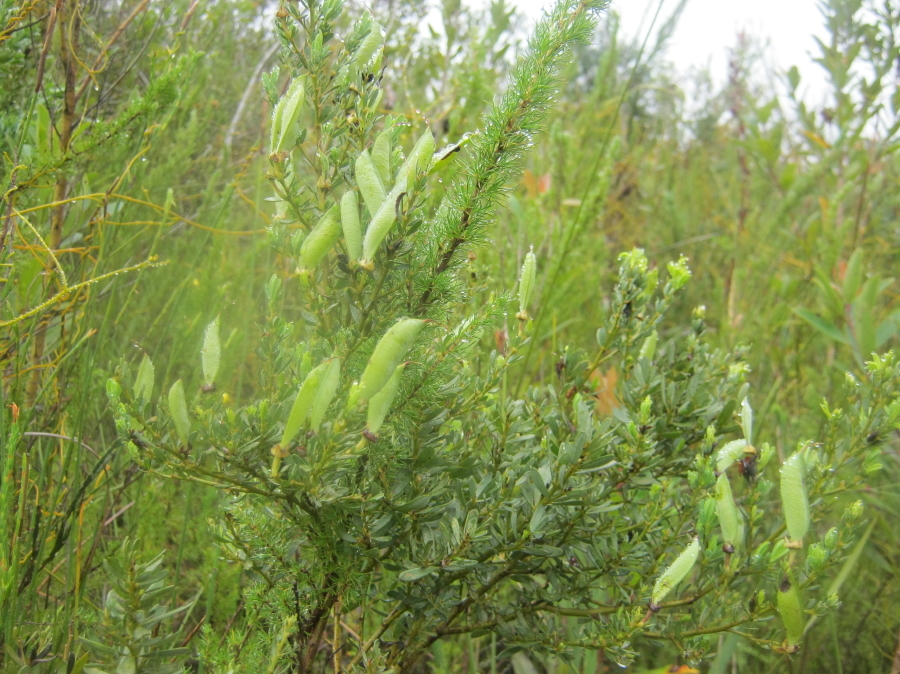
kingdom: Plantae
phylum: Tracheophyta
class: Magnoliopsida
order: Fabales
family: Fabaceae
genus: Cyclopia
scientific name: Cyclopia subternata
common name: Honeybush tea
